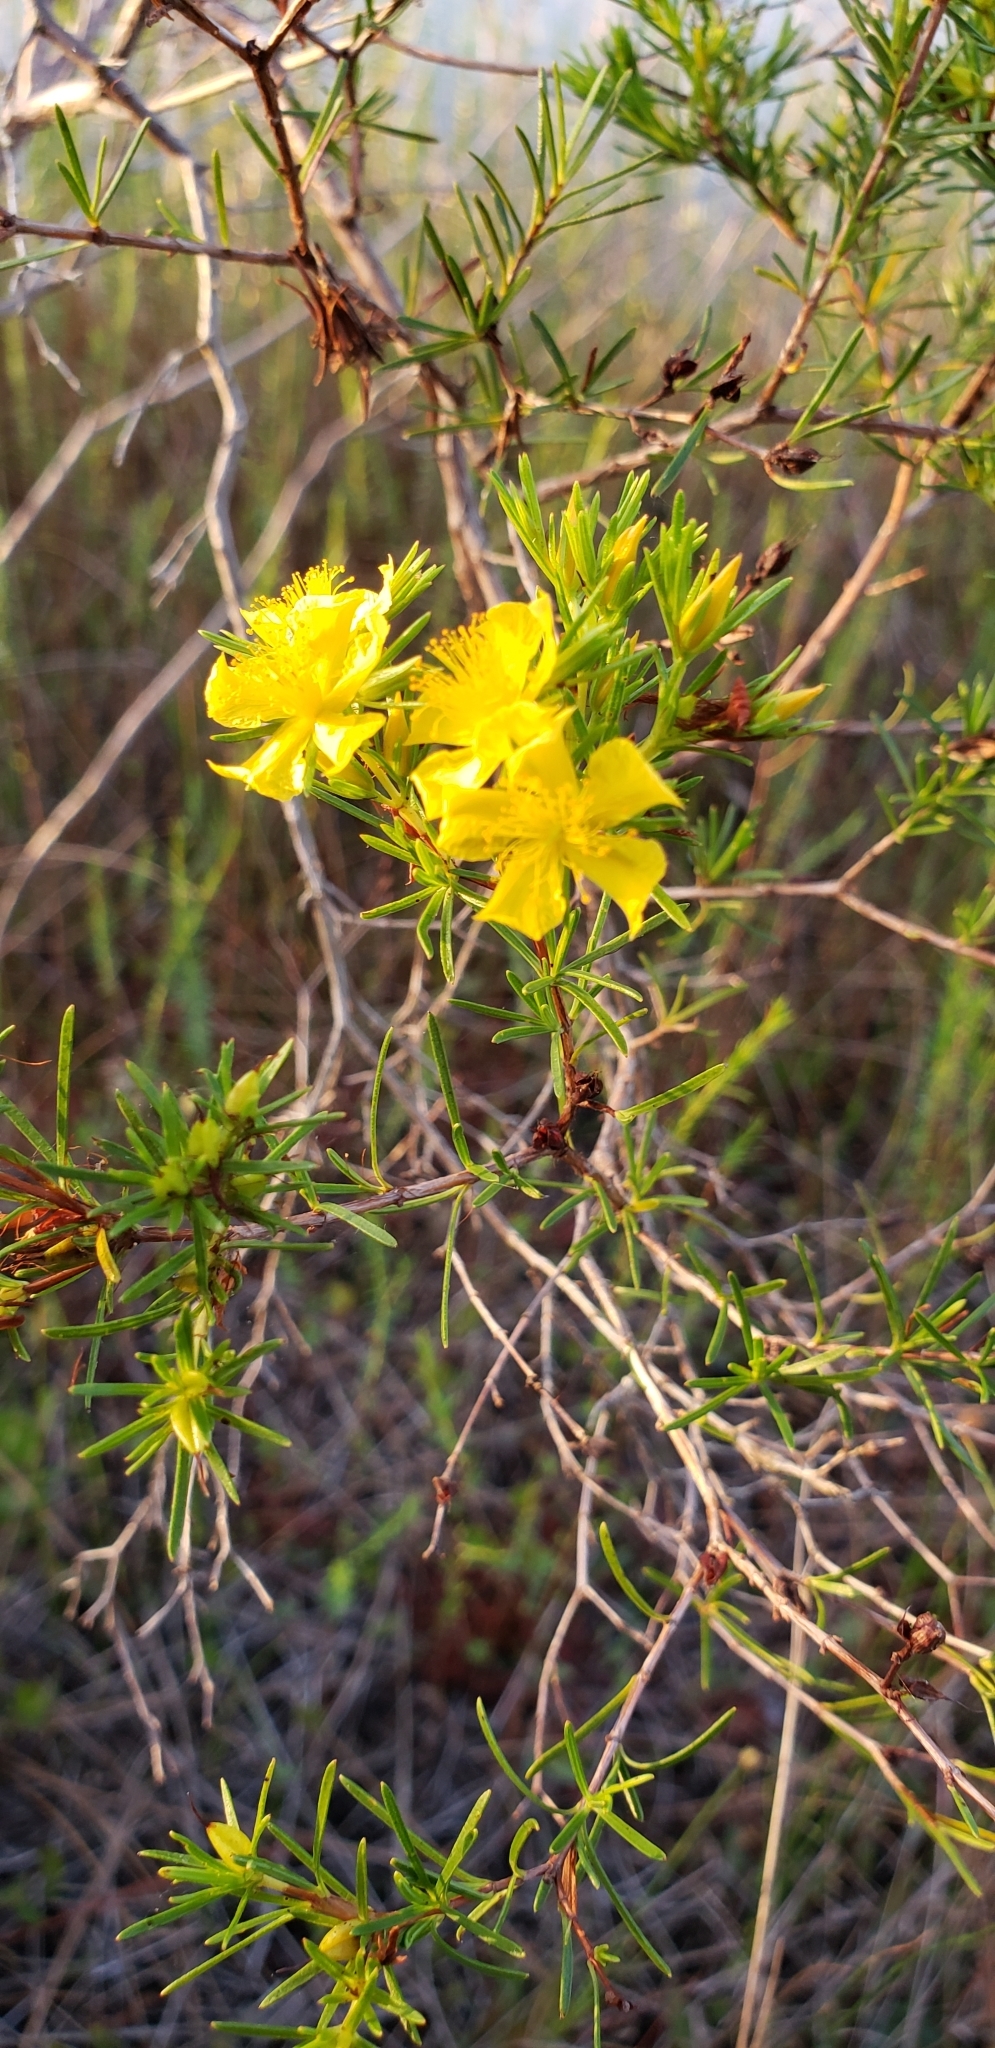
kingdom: Plantae
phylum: Tracheophyta
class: Magnoliopsida
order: Malpighiales
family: Hypericaceae
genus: Hypericum
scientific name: Hypericum fasciculatum
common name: Peelbark st. john's wort
